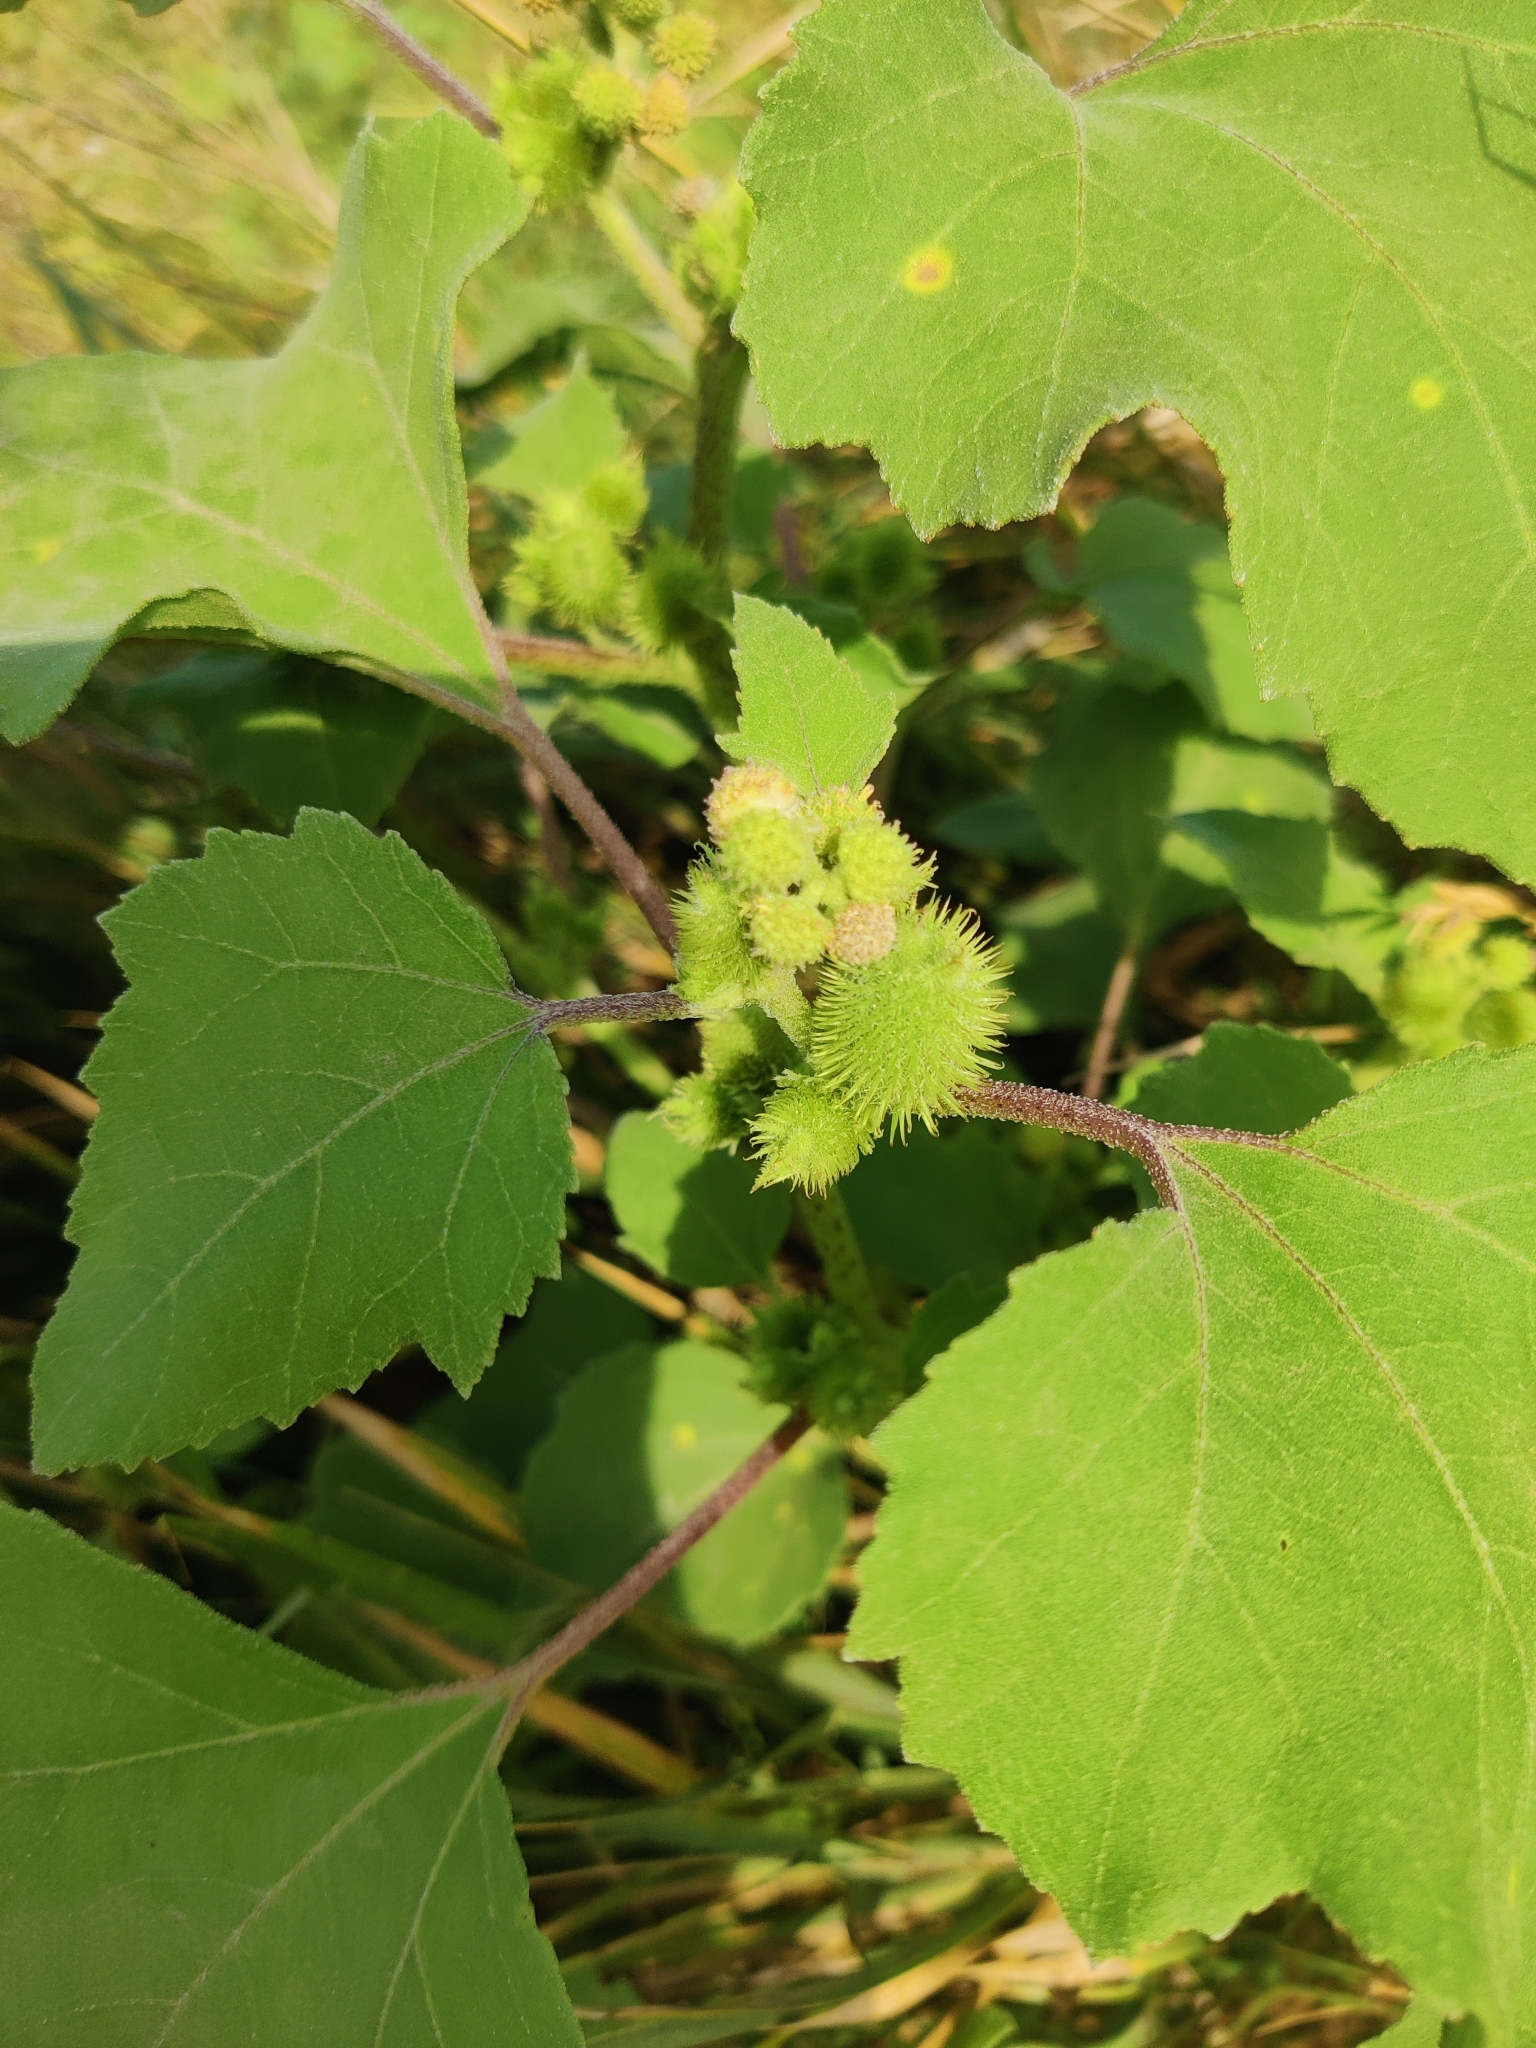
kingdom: Plantae
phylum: Tracheophyta
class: Magnoliopsida
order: Asterales
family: Asteraceae
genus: Xanthium
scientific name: Xanthium orientale
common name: Californian burr
